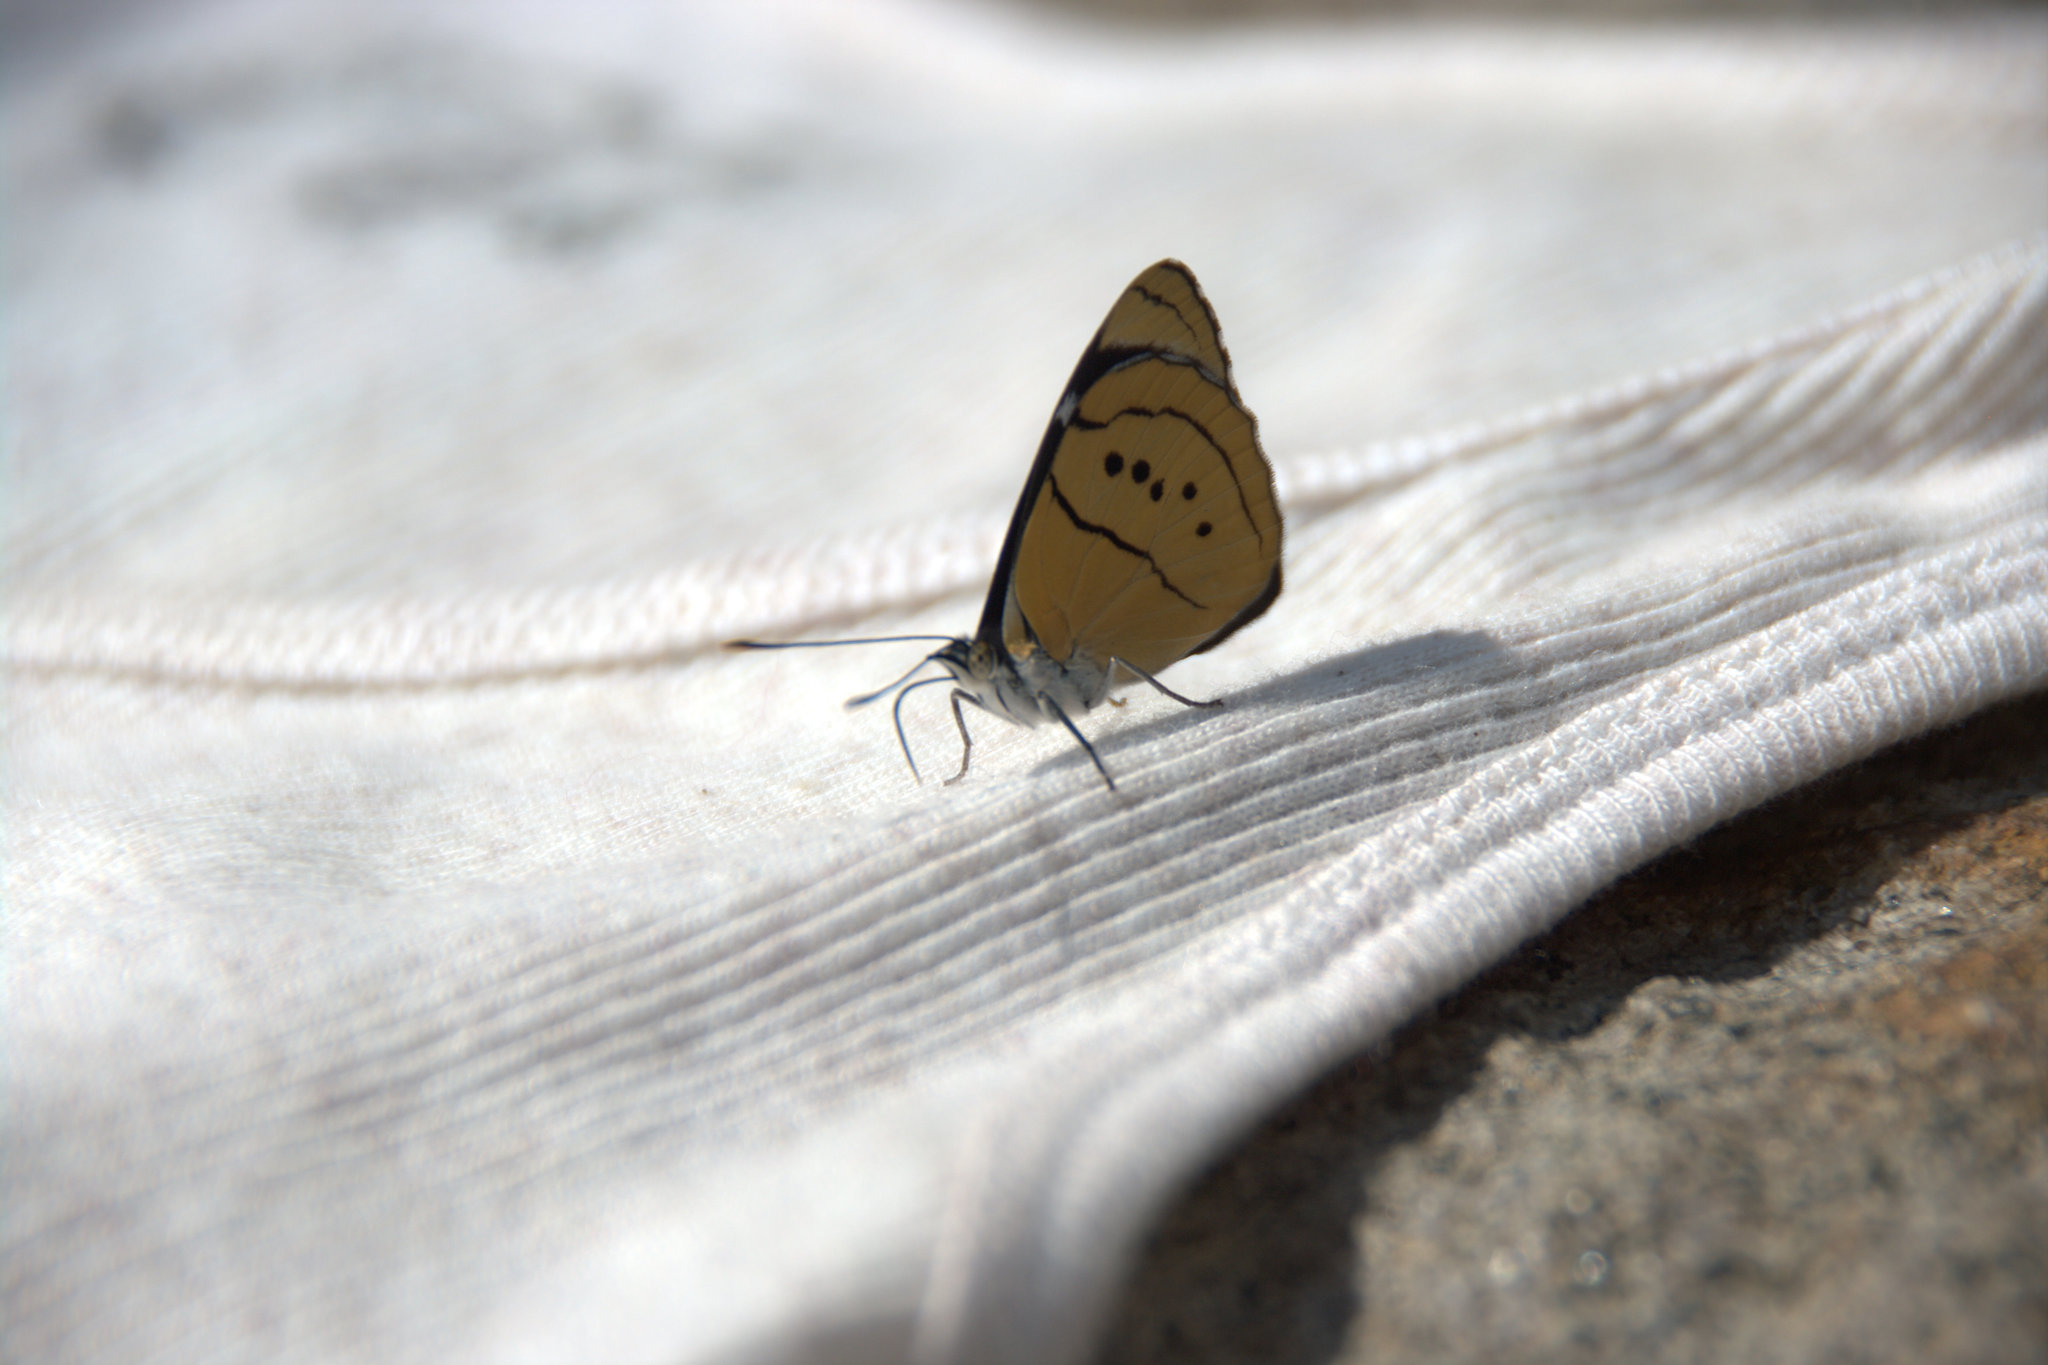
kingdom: Animalia
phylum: Arthropoda
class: Insecta
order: Lepidoptera
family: Nymphalidae
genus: Perisama
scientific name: Perisama humboldtii
